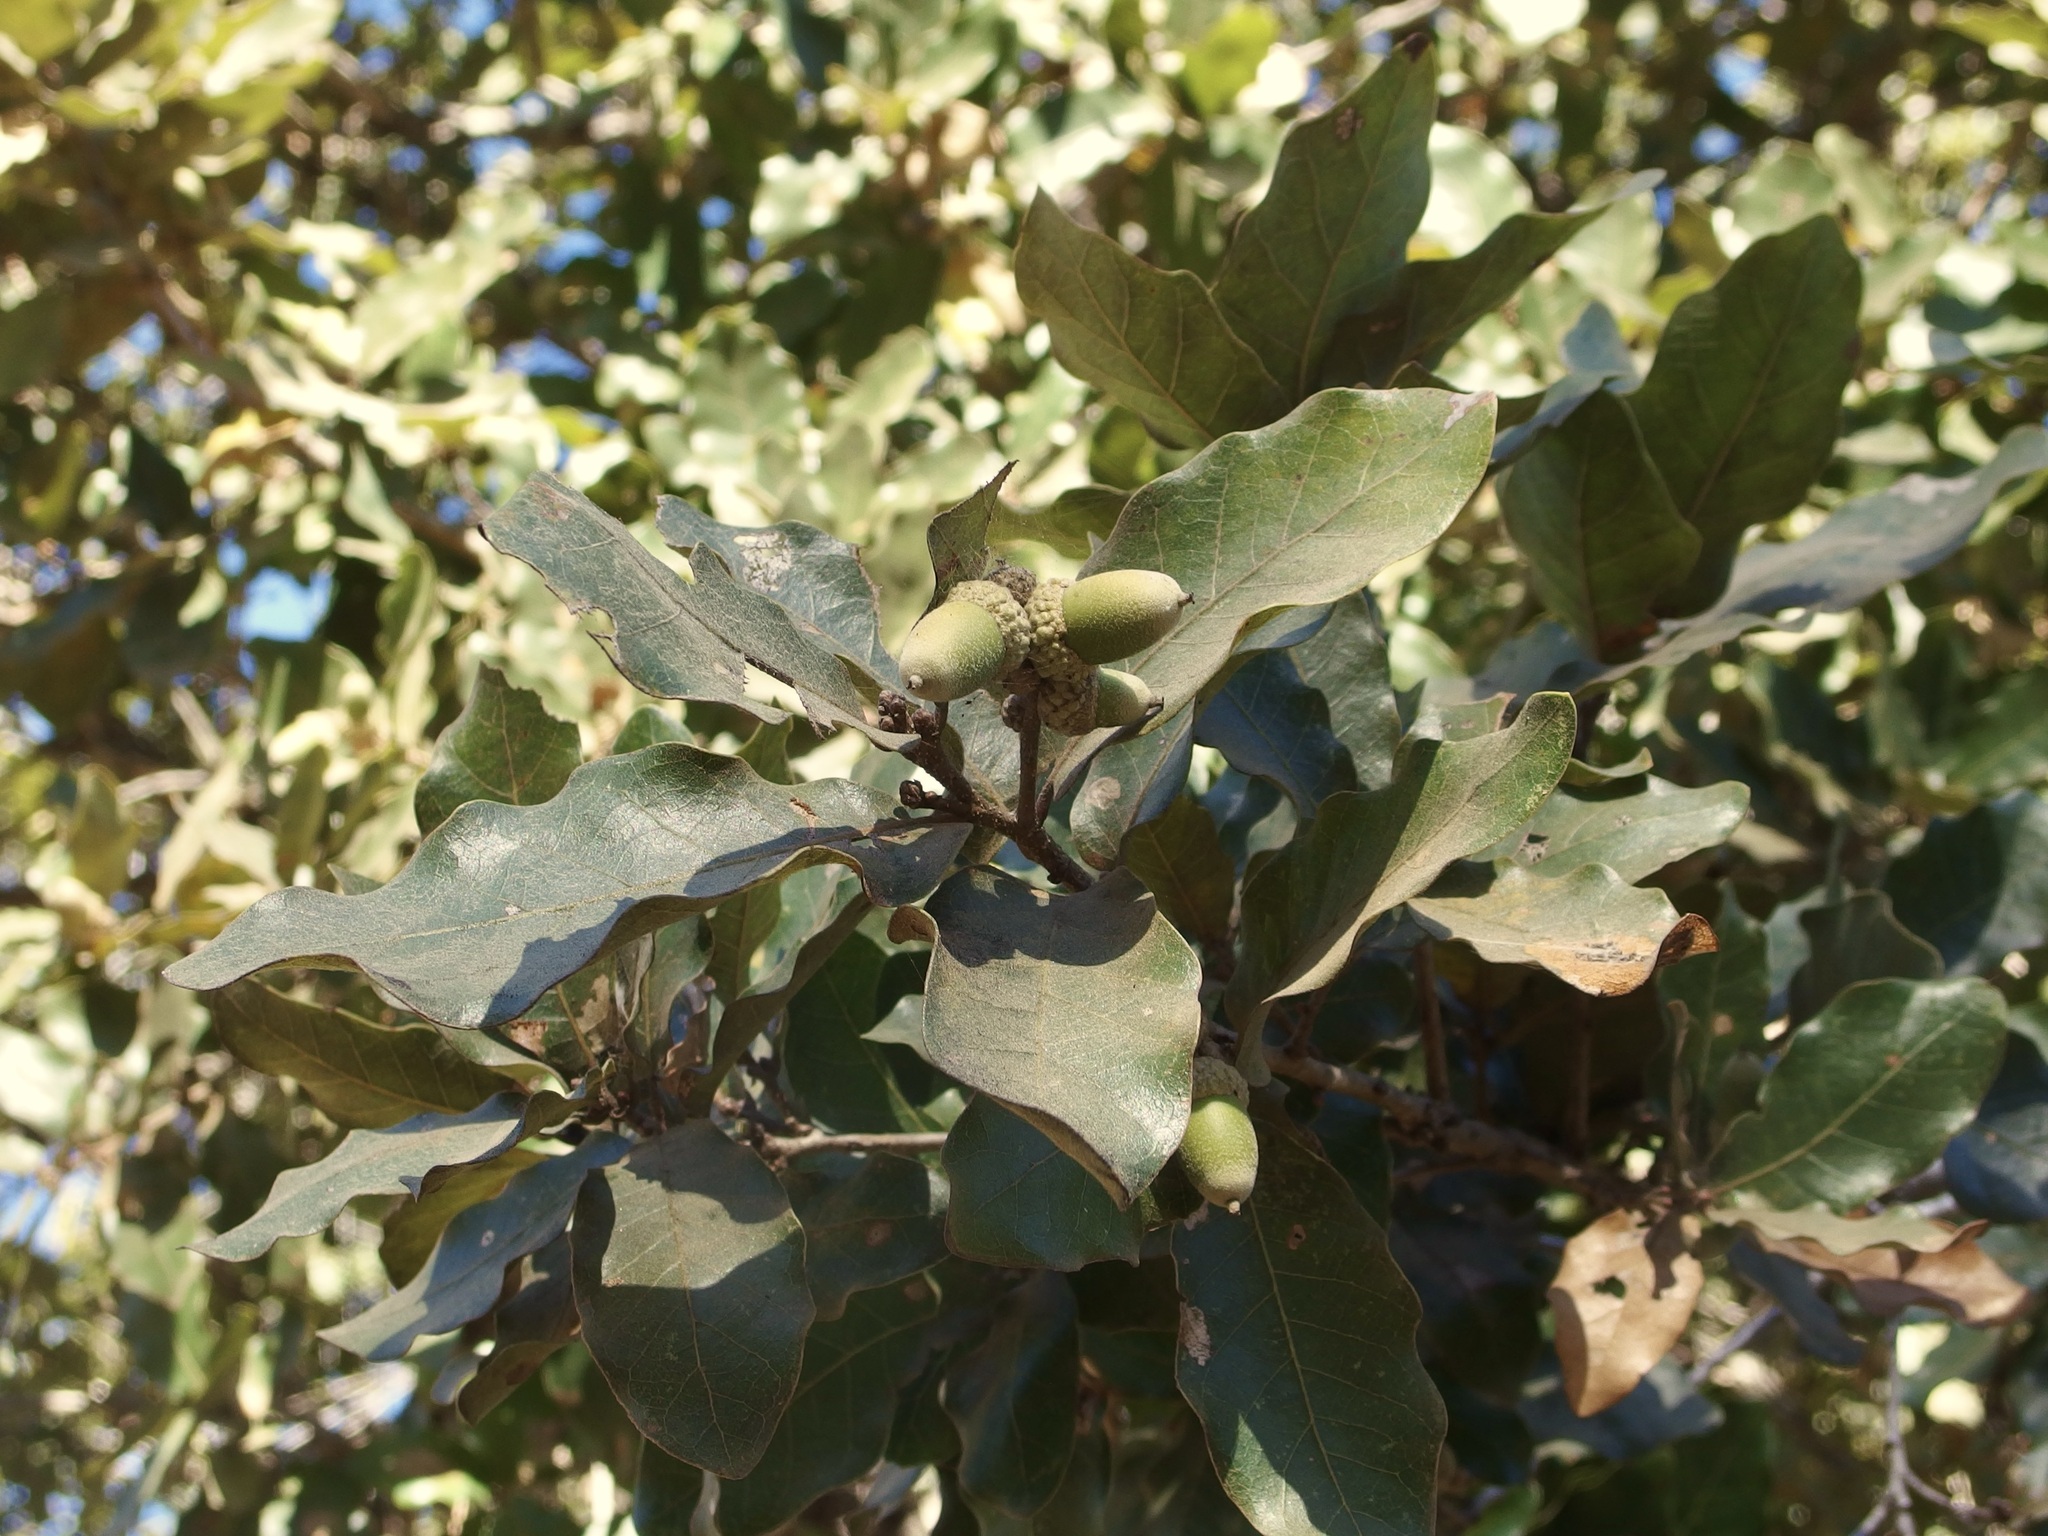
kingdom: Plantae
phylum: Tracheophyta
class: Magnoliopsida
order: Fagales
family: Fagaceae
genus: Quercus
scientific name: Quercus tuberculata
